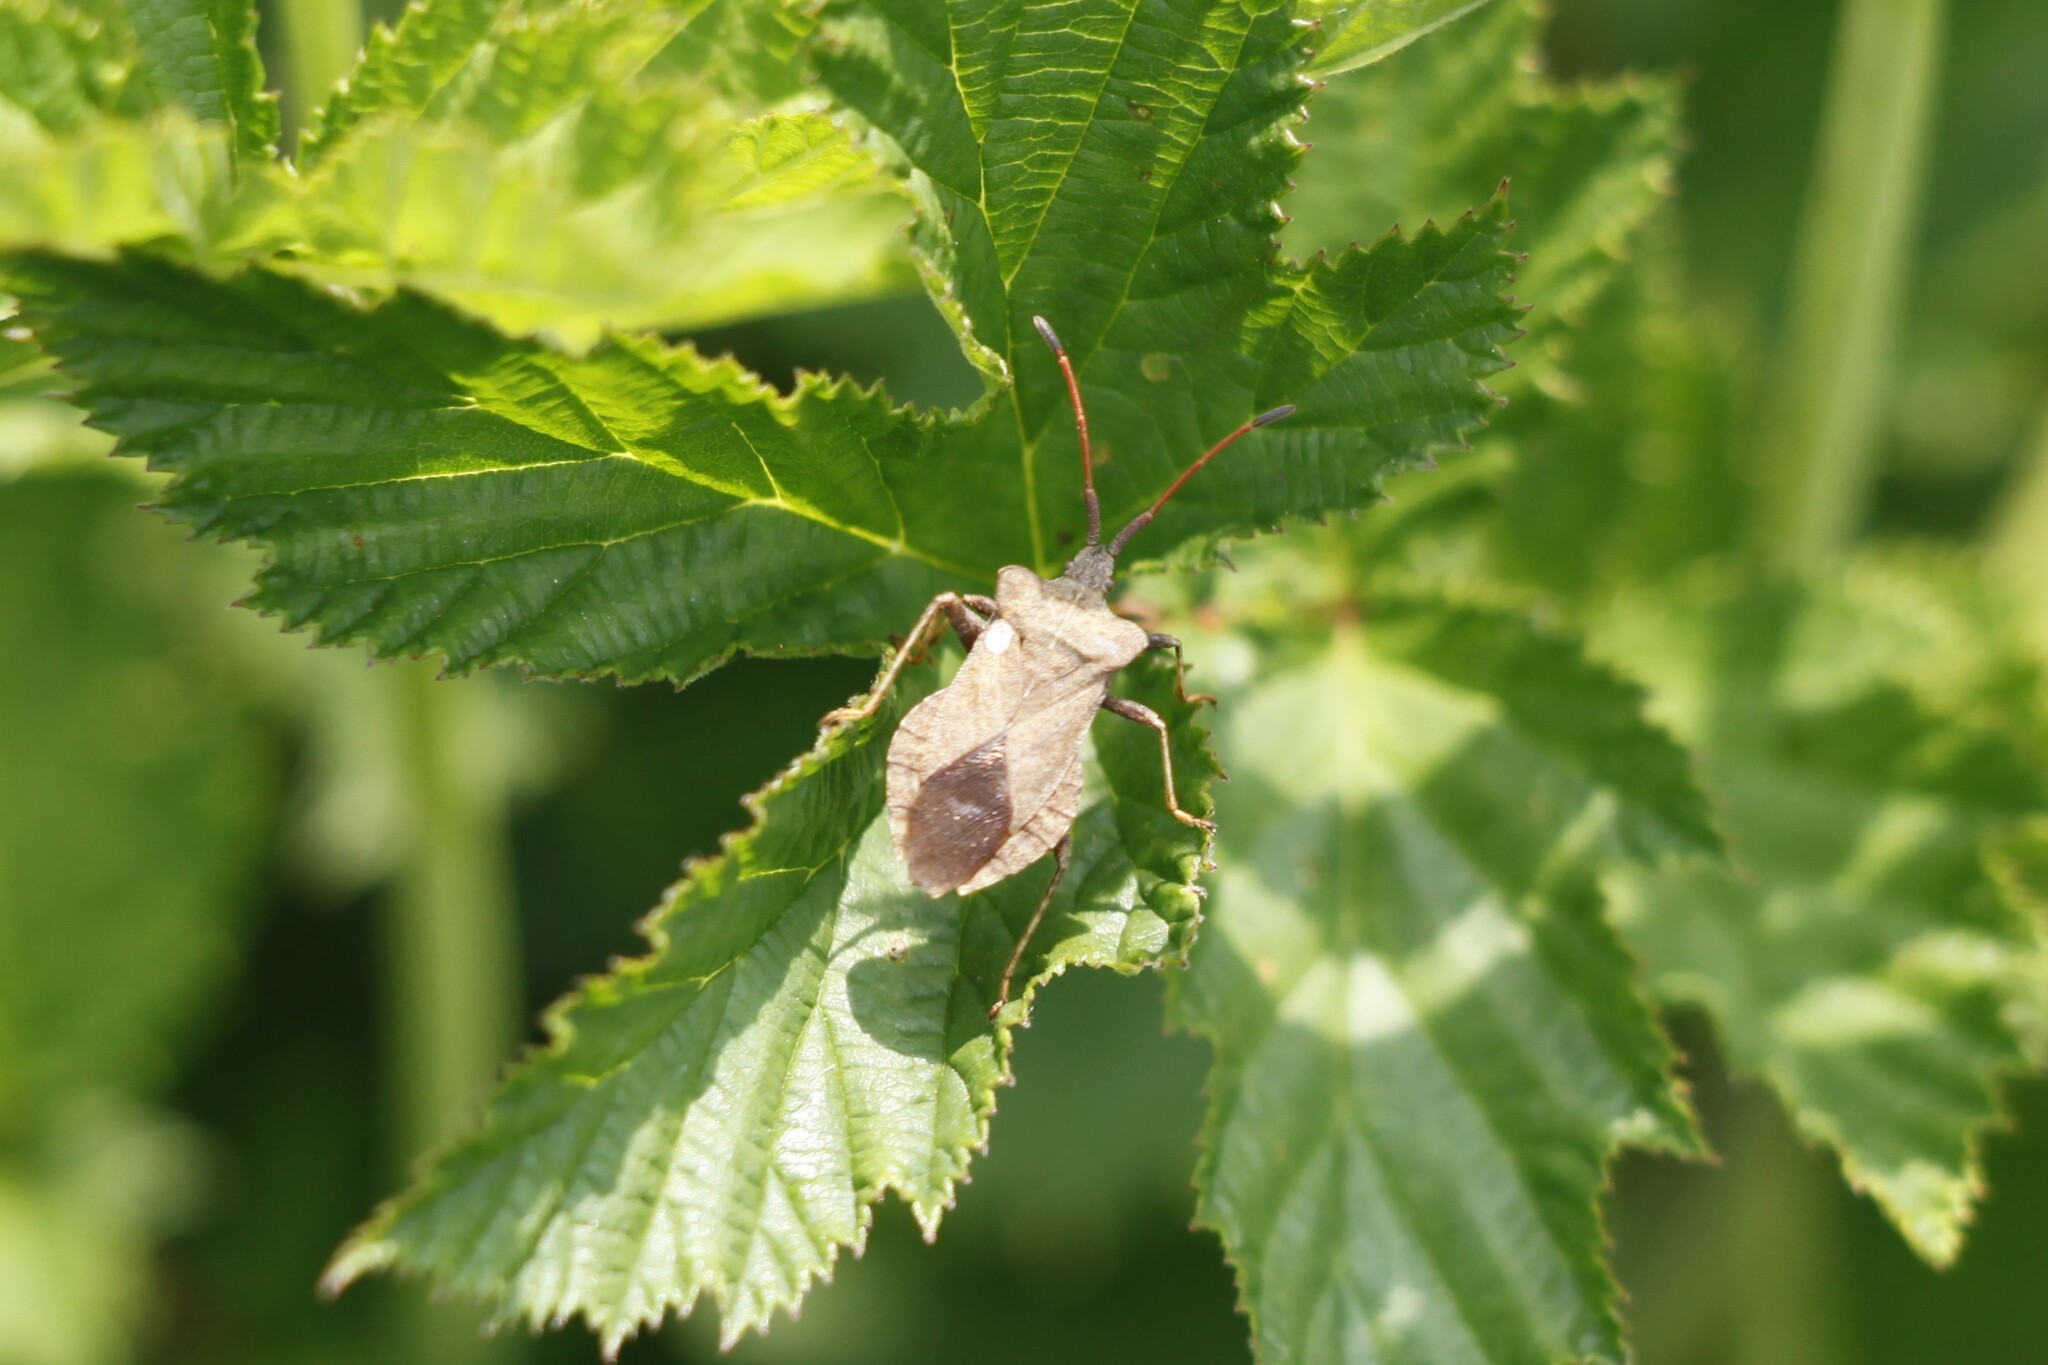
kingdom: Animalia
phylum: Arthropoda
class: Insecta
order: Hemiptera
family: Coreidae
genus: Coreus
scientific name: Coreus marginatus
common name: Dock bug
